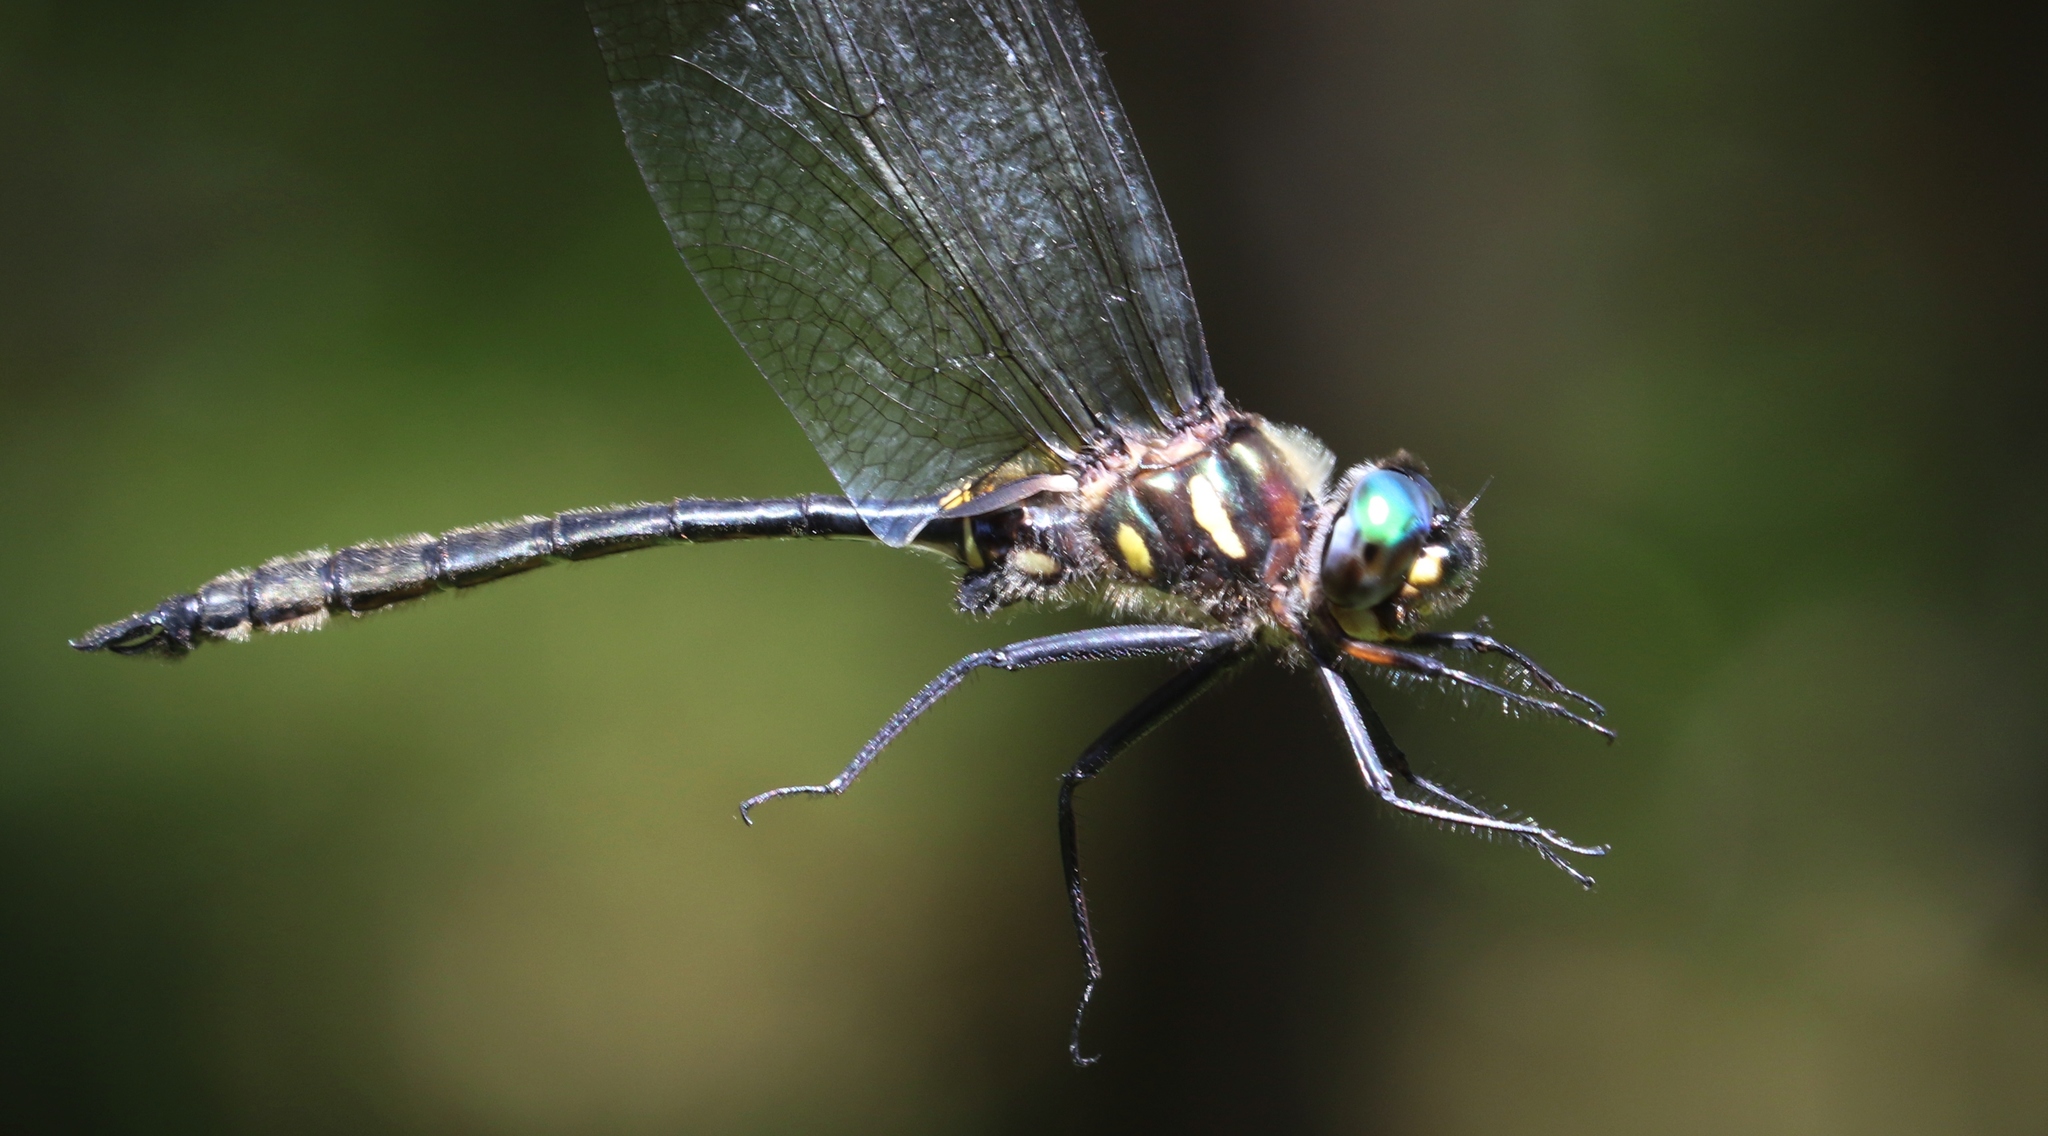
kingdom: Animalia
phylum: Arthropoda
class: Insecta
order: Odonata
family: Corduliidae
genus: Somatochlora
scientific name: Somatochlora elongata
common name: Ski-tipped emerald
